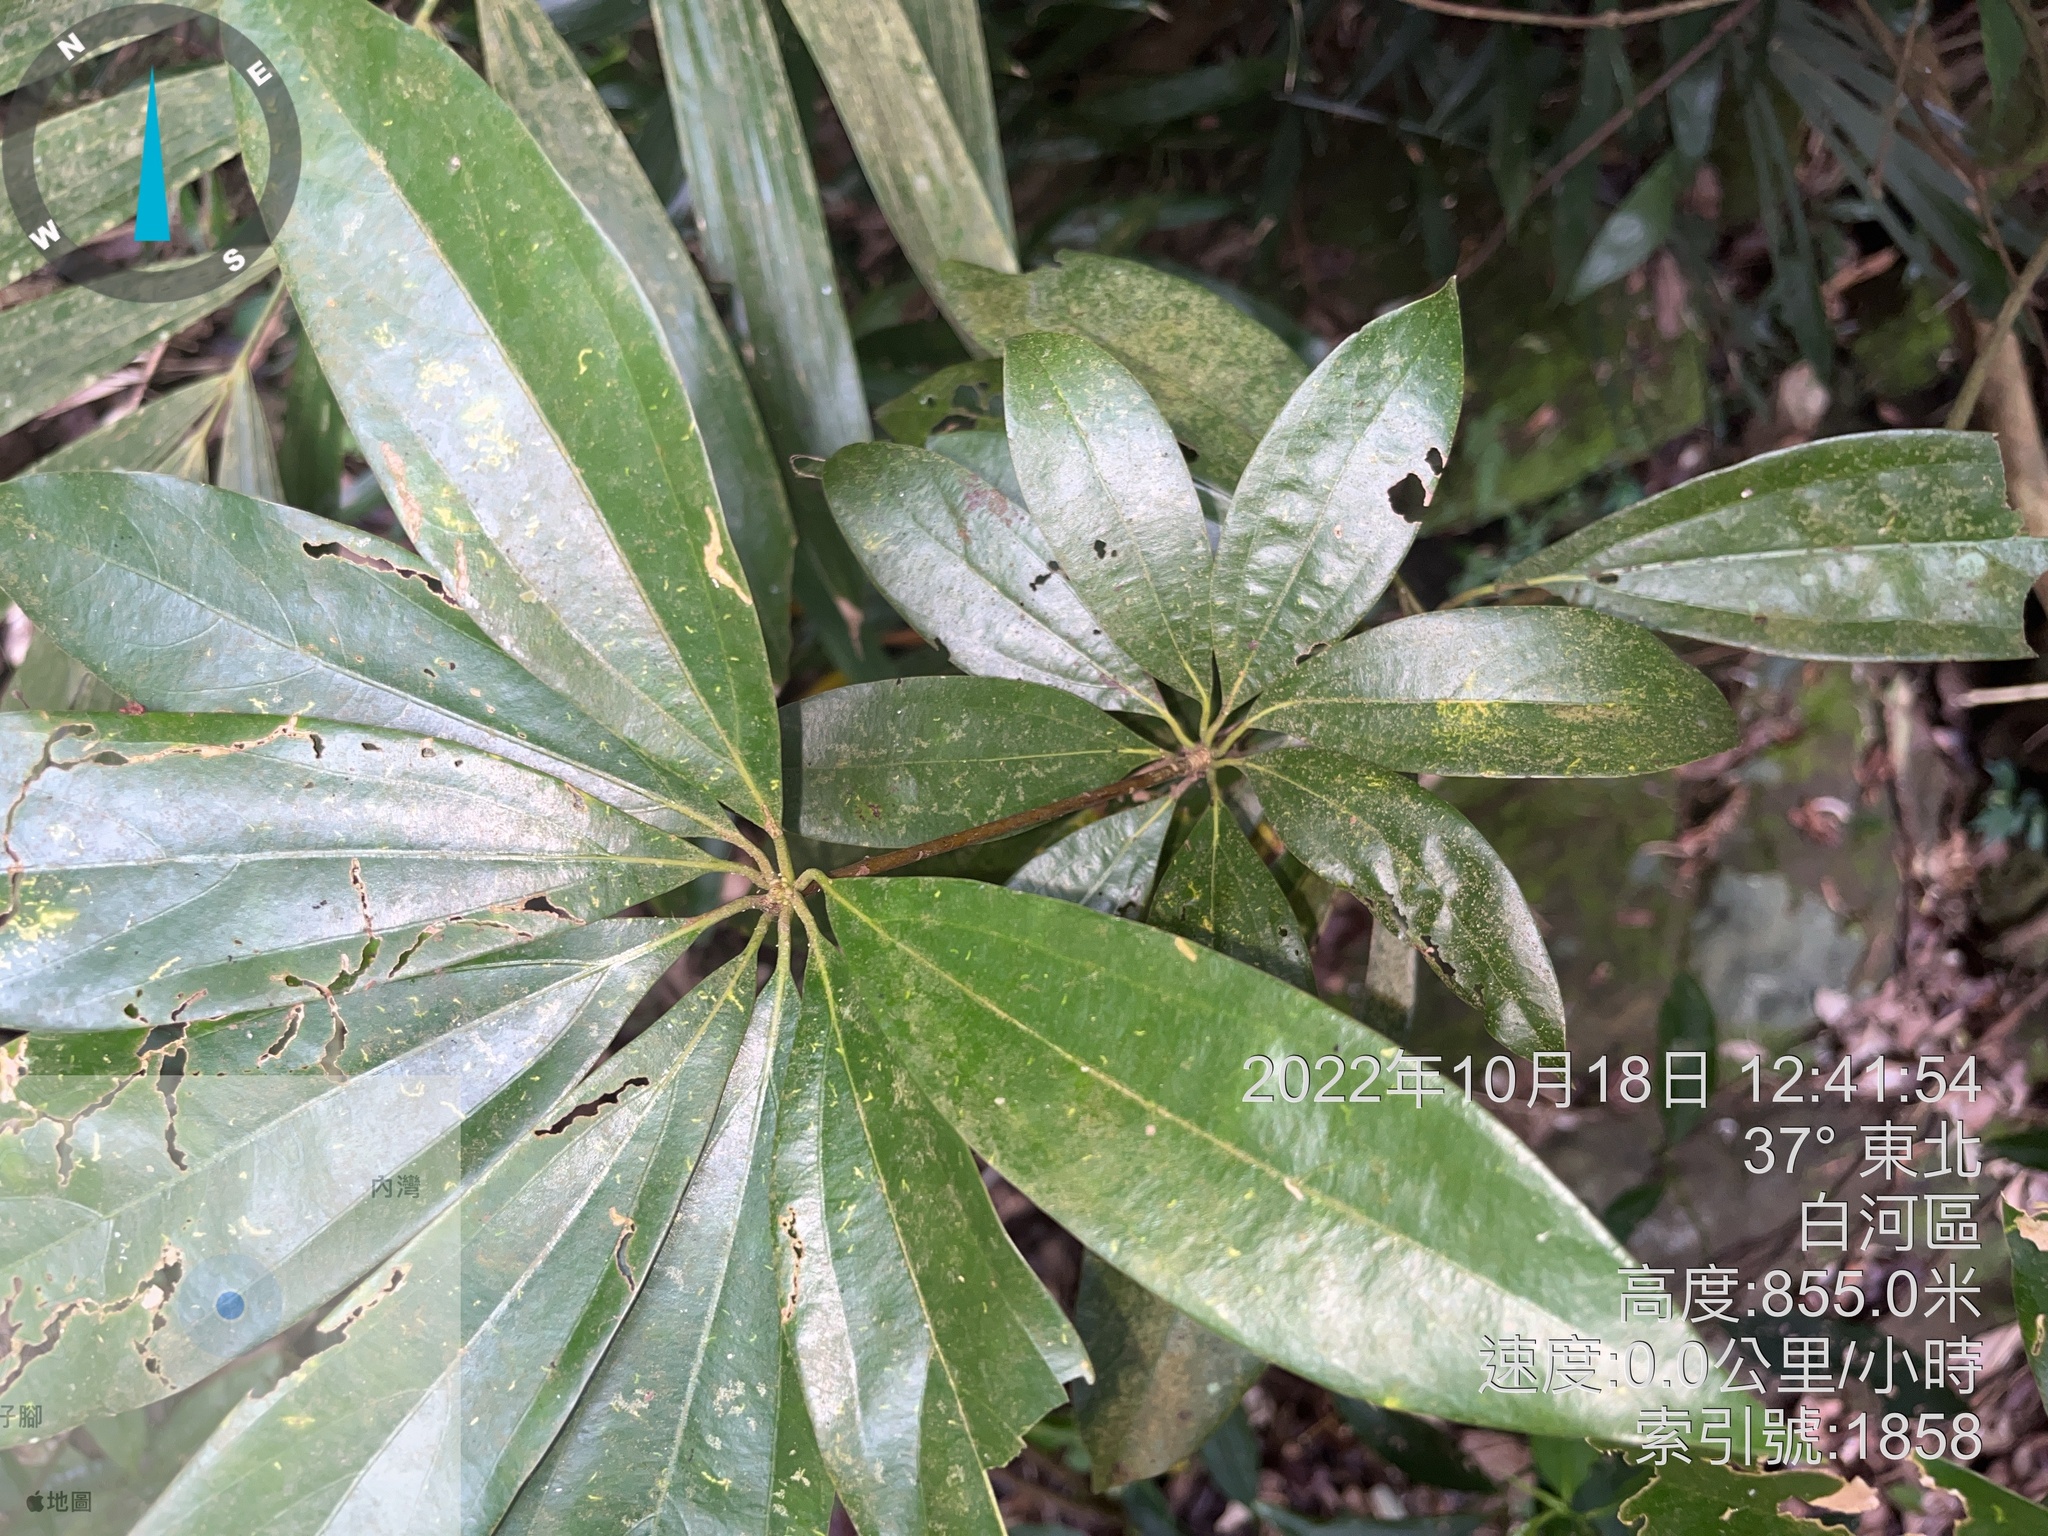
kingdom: Plantae
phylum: Tracheophyta
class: Magnoliopsida
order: Laurales
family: Lauraceae
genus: Neolitsea
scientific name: Neolitsea konishii
